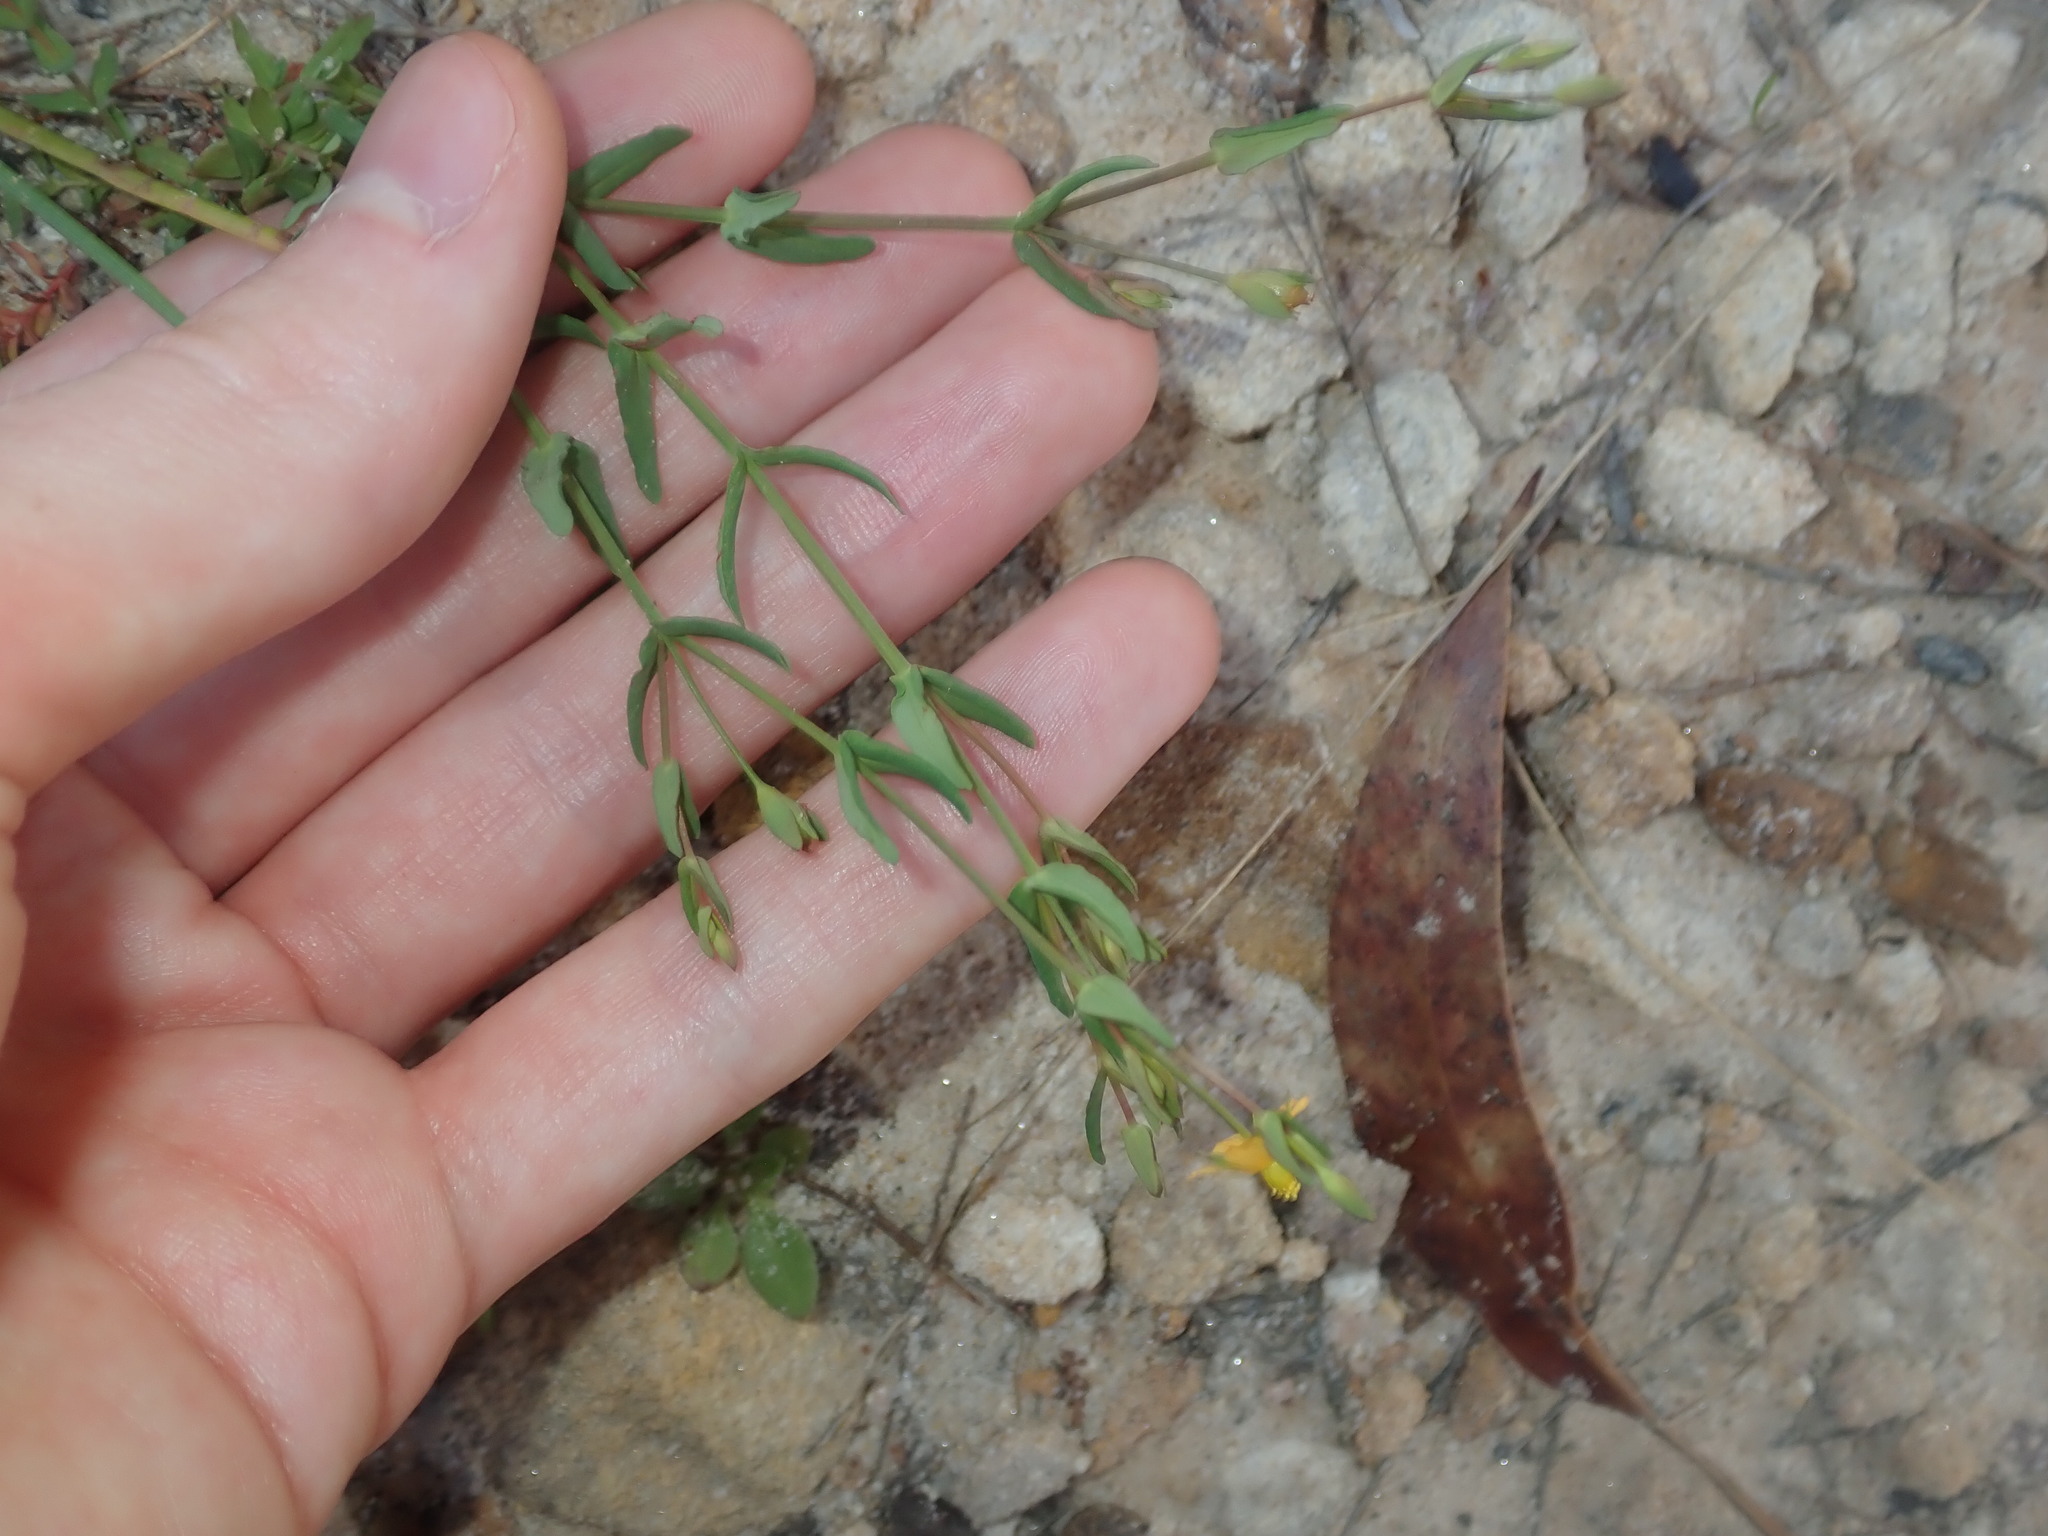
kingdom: Plantae
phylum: Tracheophyta
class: Magnoliopsida
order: Malpighiales
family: Hypericaceae
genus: Hypericum
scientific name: Hypericum gramineum
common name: Grassy st. johnswort
